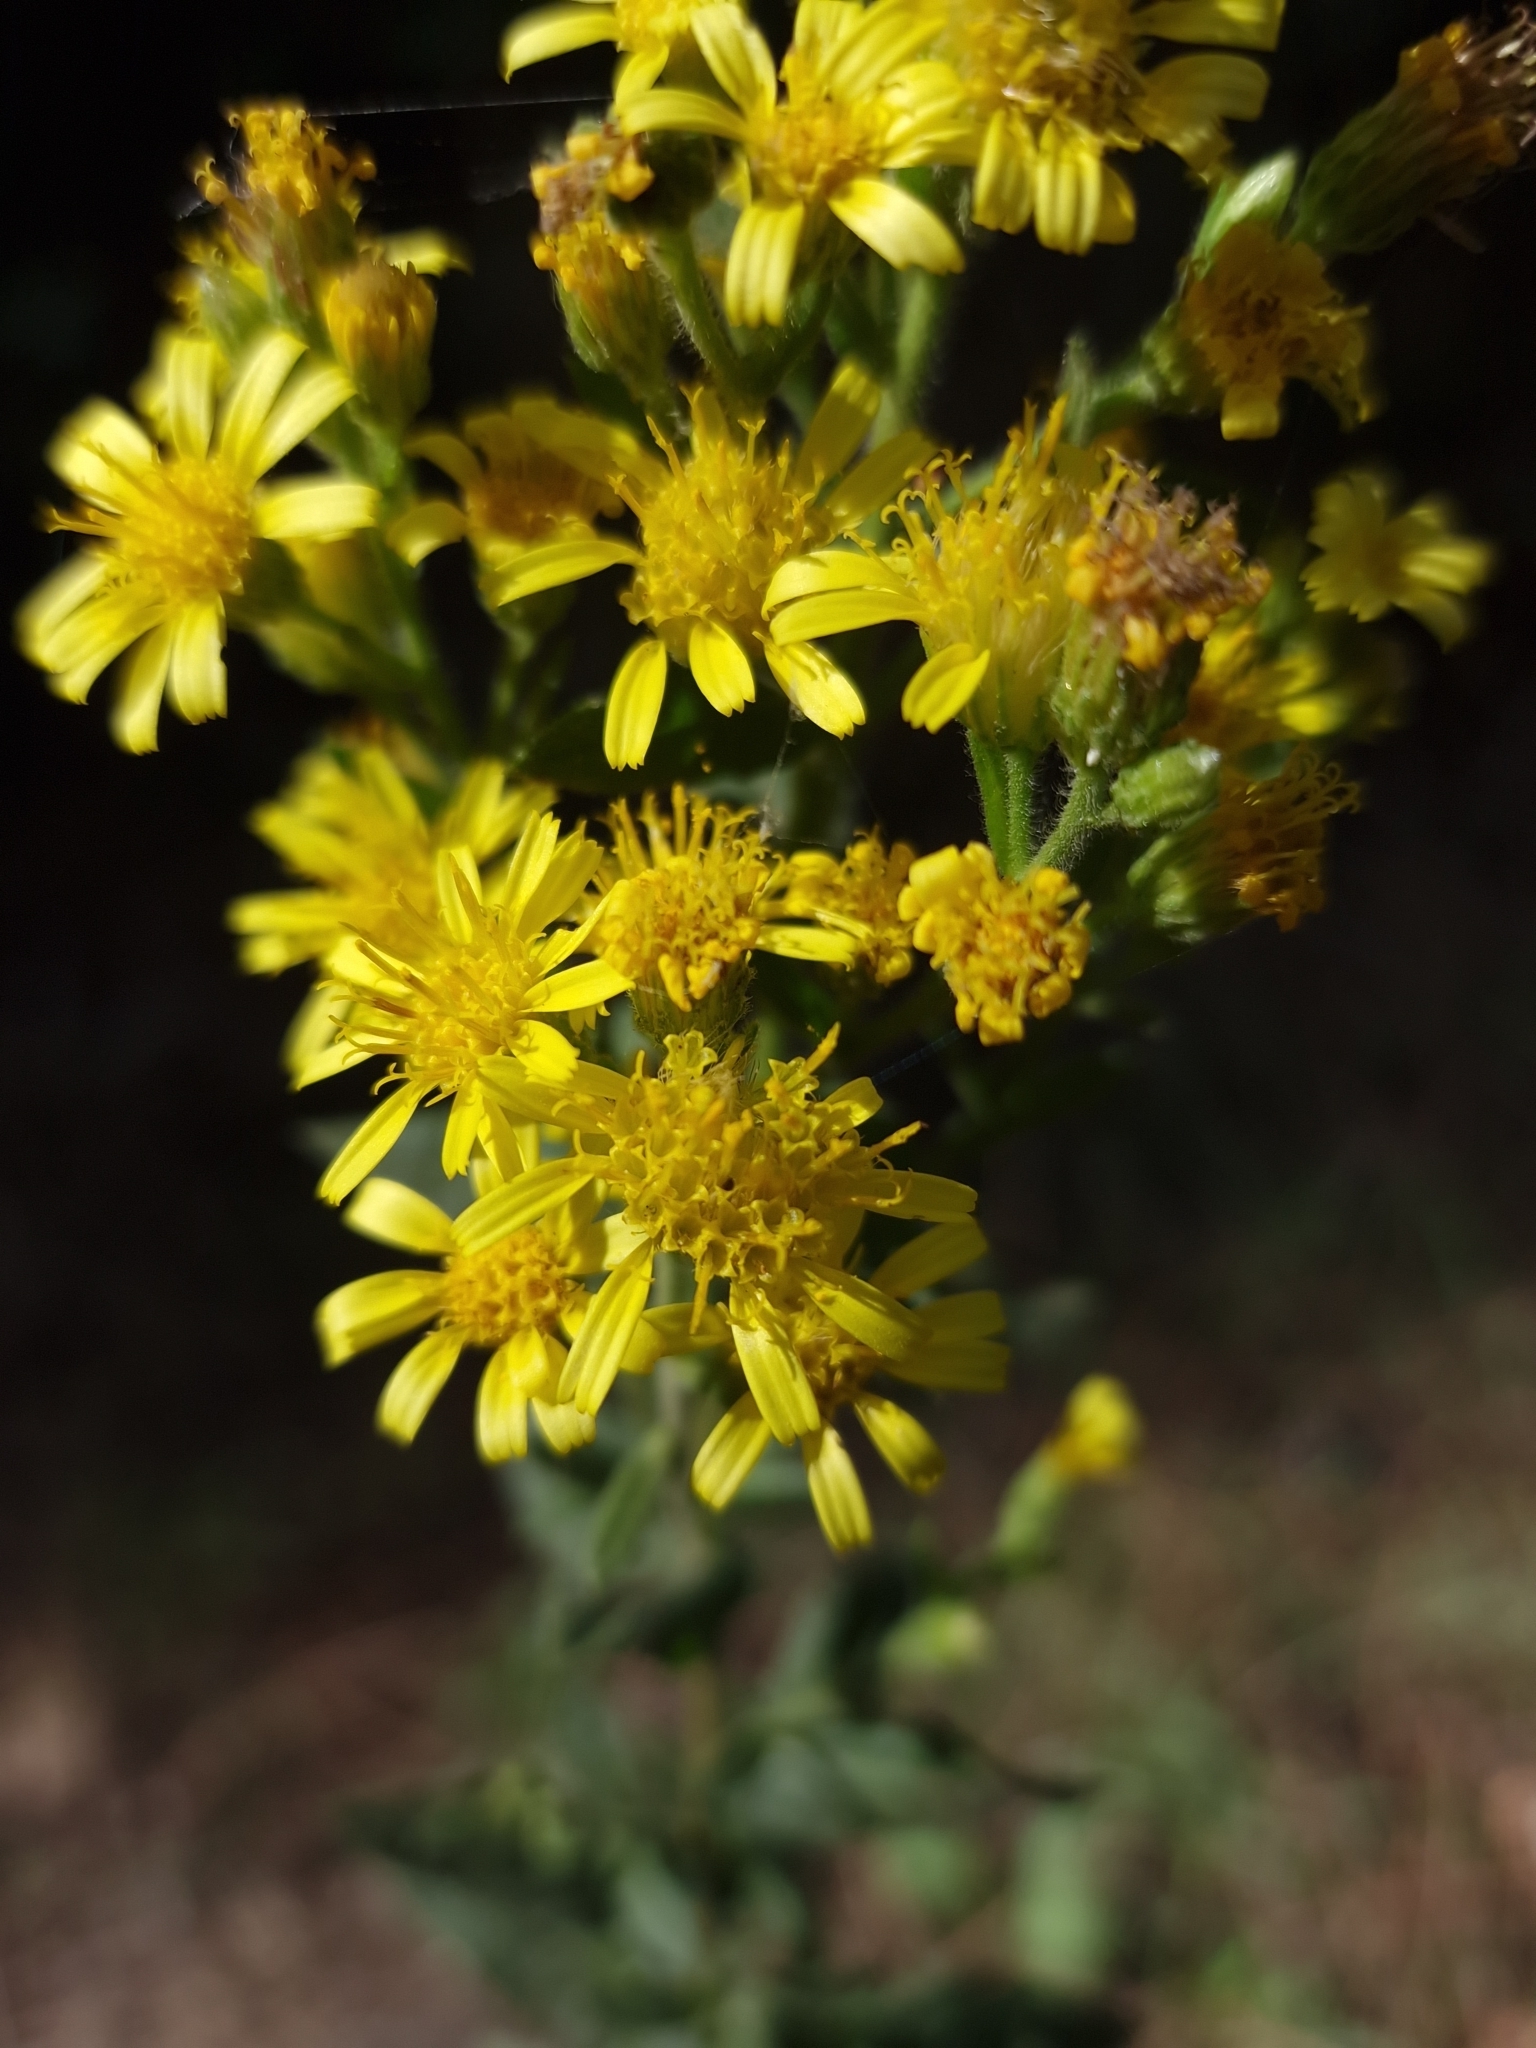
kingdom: Plantae
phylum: Tracheophyta
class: Magnoliopsida
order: Asterales
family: Asteraceae
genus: Dittrichia
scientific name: Dittrichia viscosa
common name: Woody fleabane
